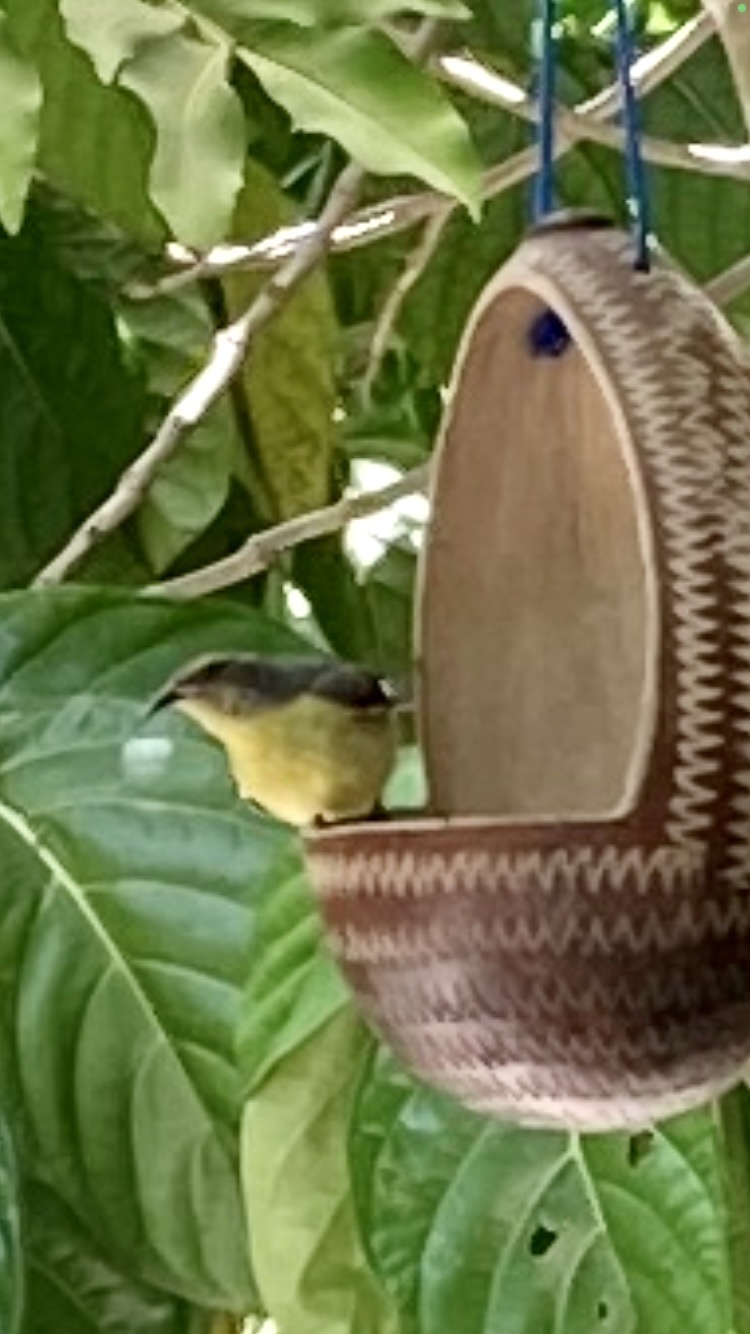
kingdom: Animalia
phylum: Chordata
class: Aves
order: Passeriformes
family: Thraupidae
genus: Coereba
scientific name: Coereba flaveola
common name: Bananaquit
